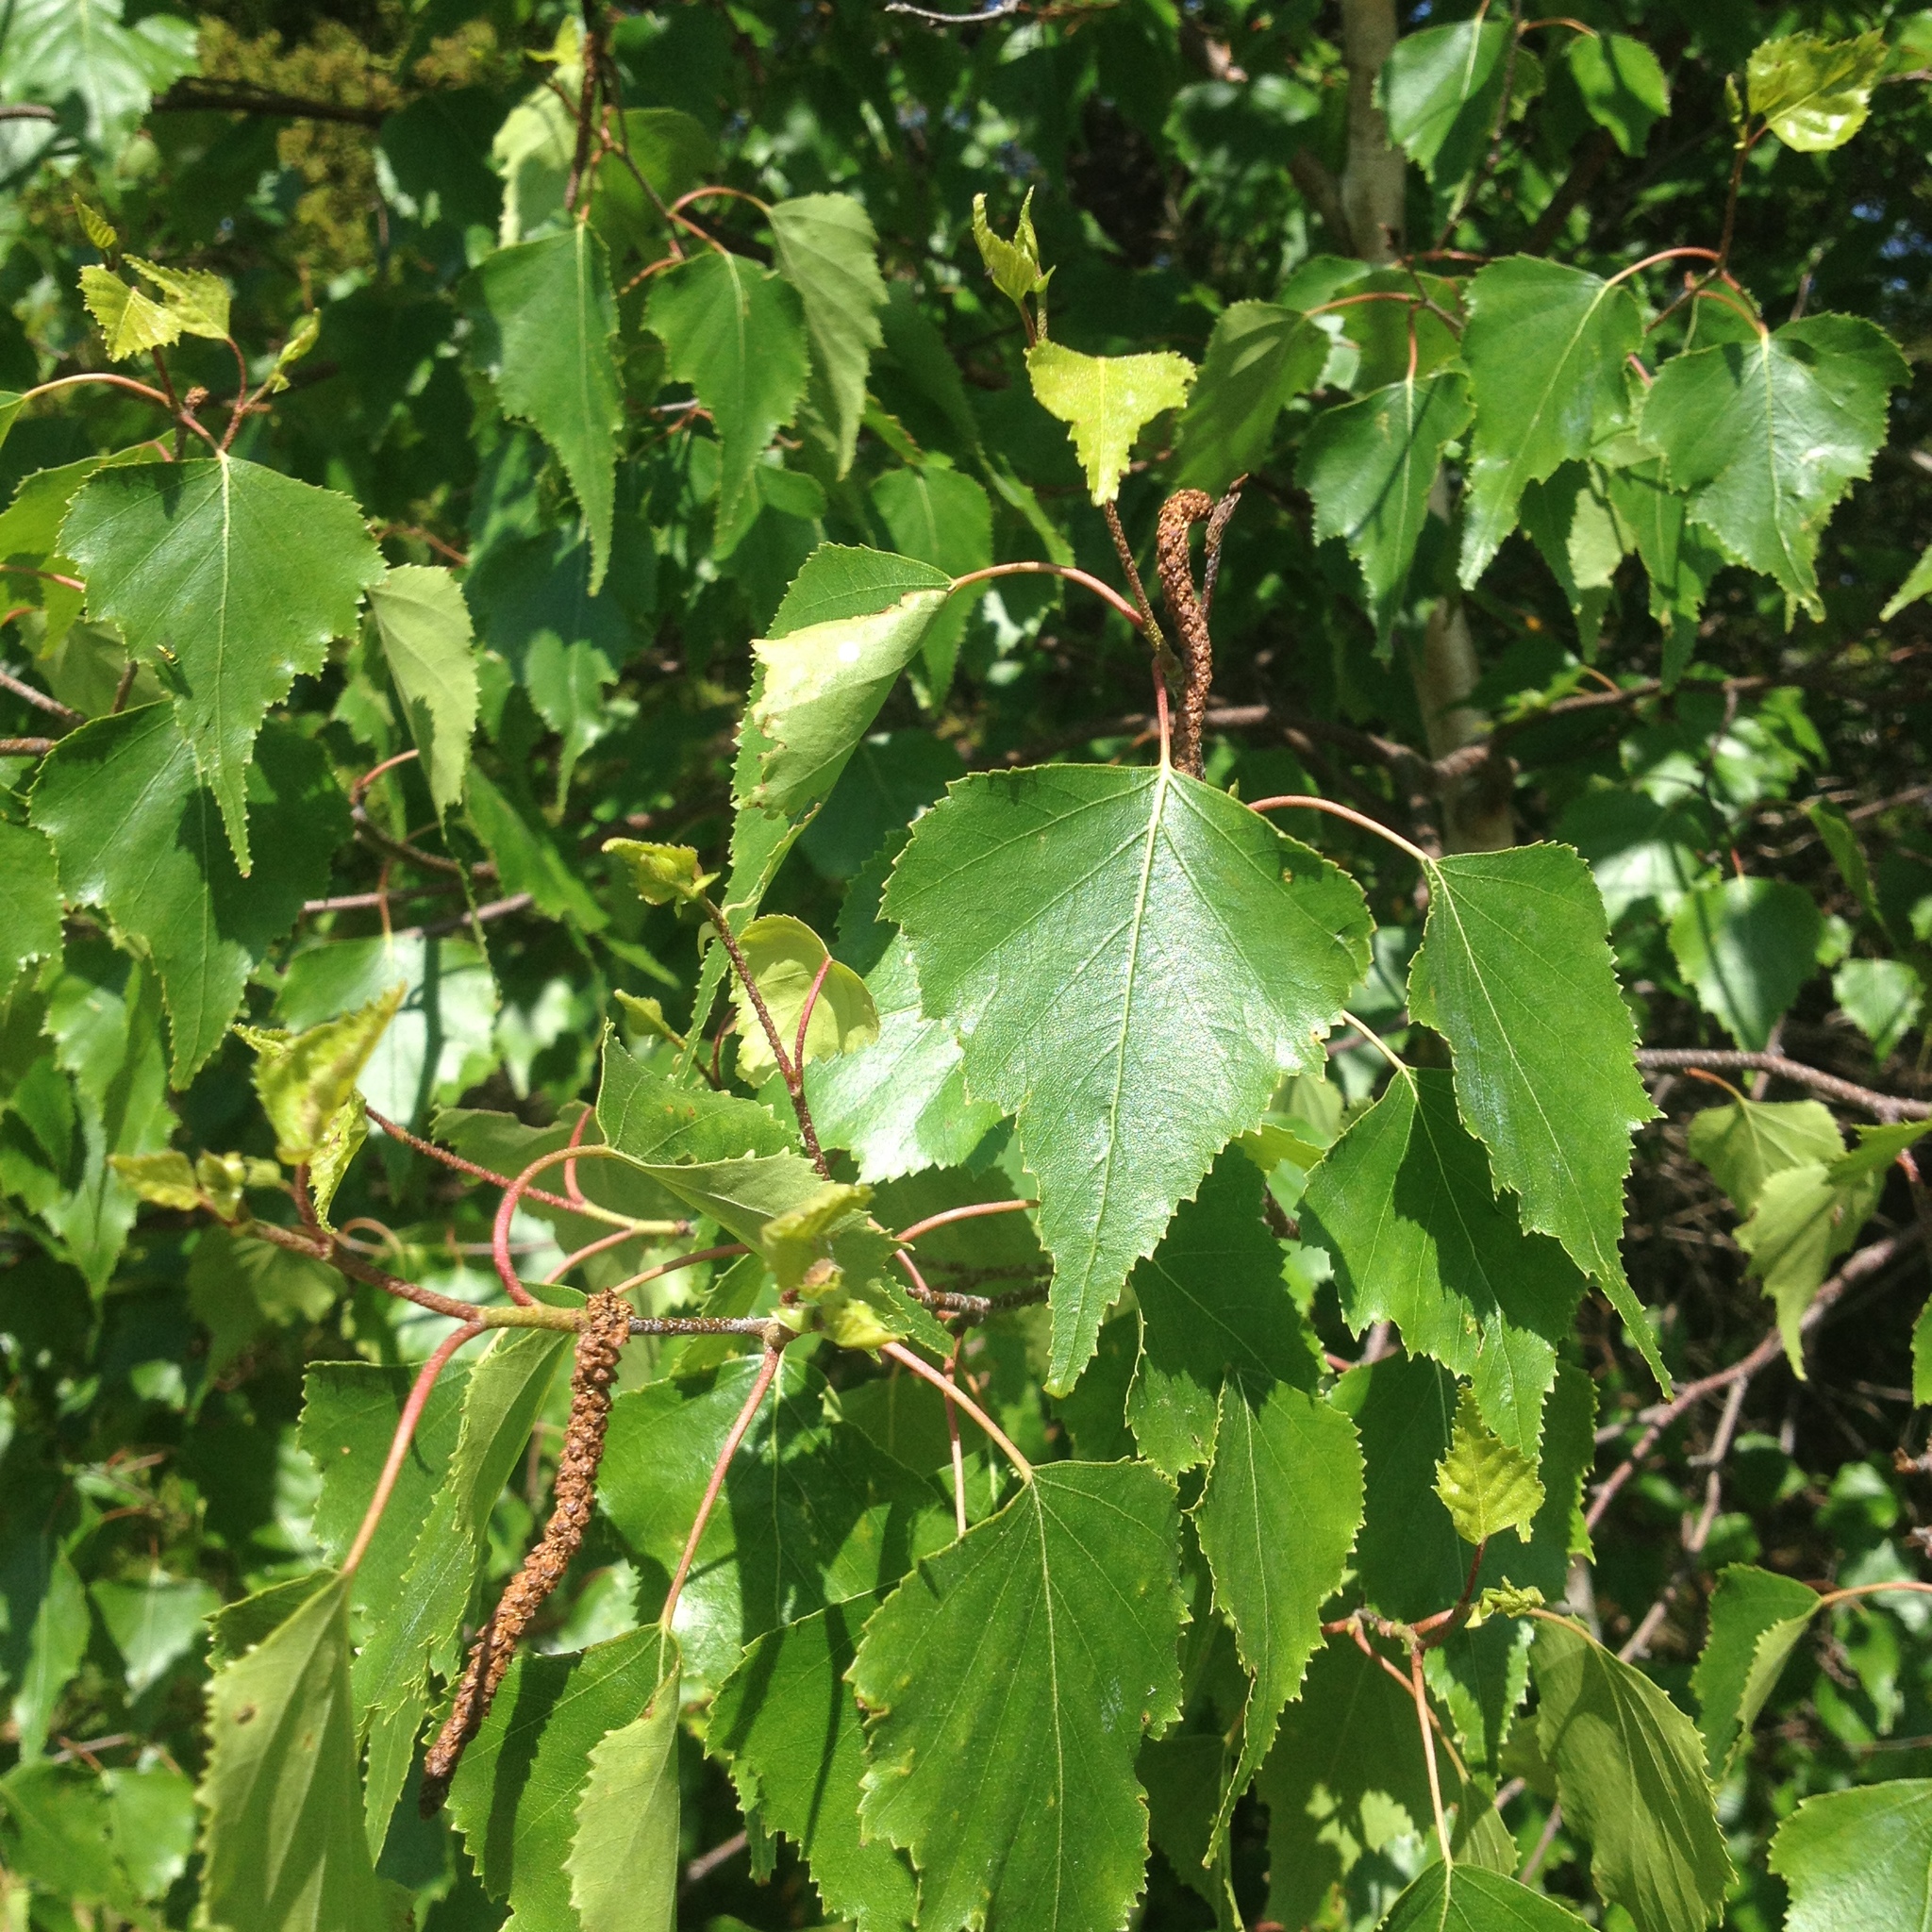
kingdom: Plantae
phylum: Tracheophyta
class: Magnoliopsida
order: Fagales
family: Betulaceae
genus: Betula
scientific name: Betula populifolia
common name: Fire birch
